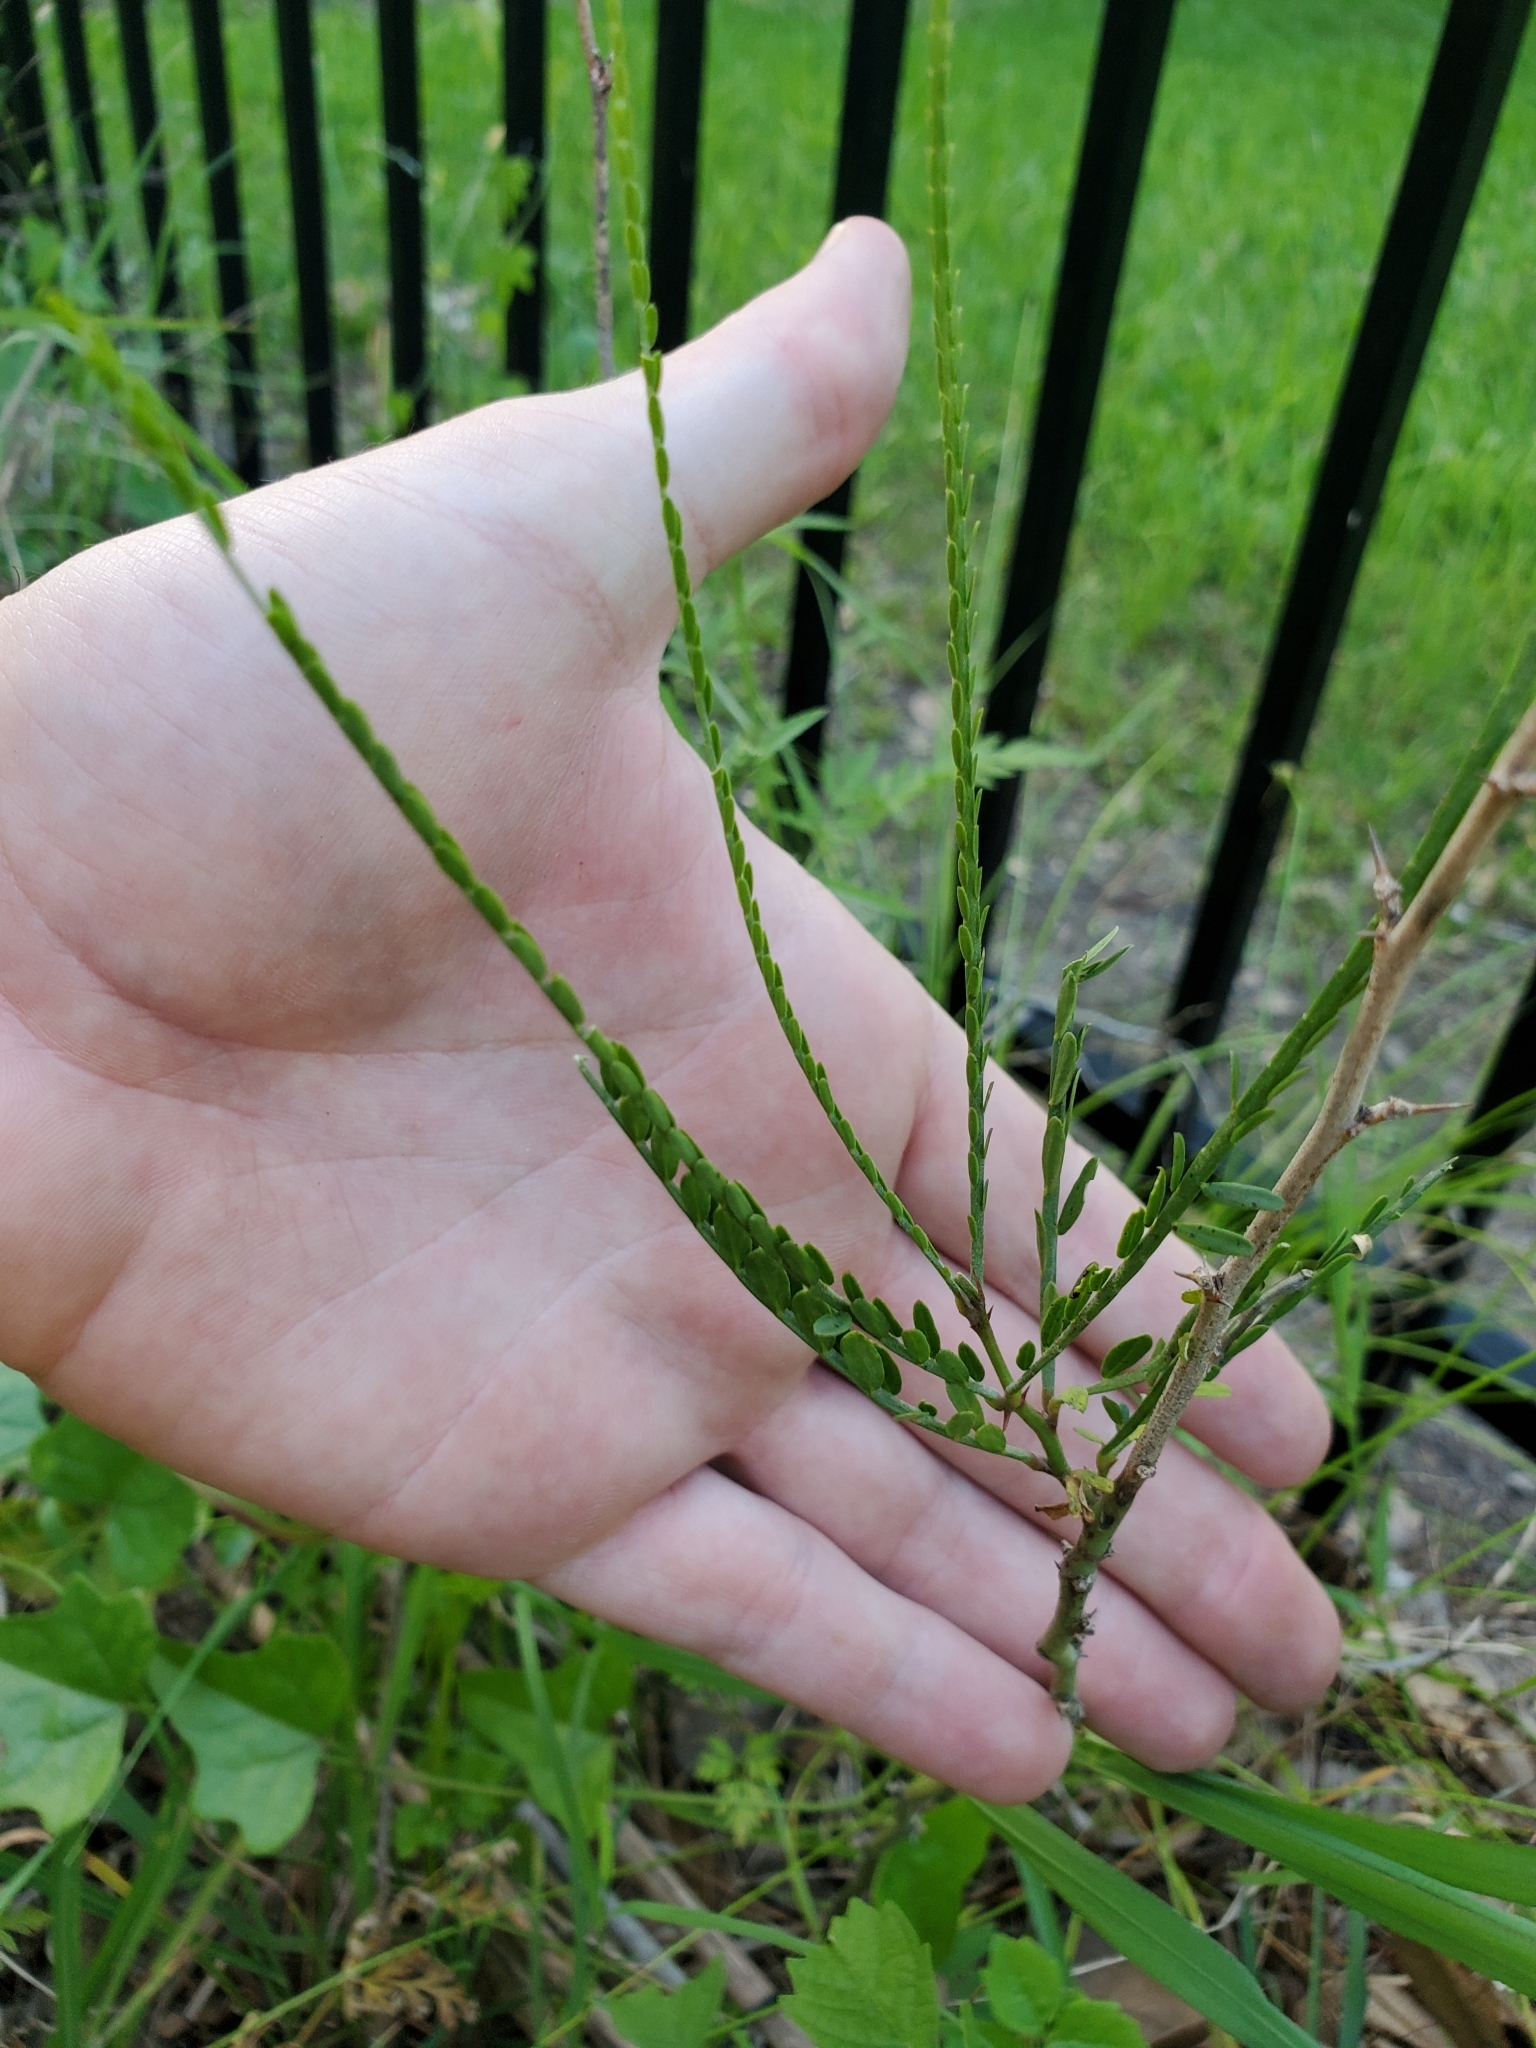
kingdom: Plantae
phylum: Tracheophyta
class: Magnoliopsida
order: Fabales
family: Fabaceae
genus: Parkinsonia
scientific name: Parkinsonia aculeata
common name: Jerusalem thorn
